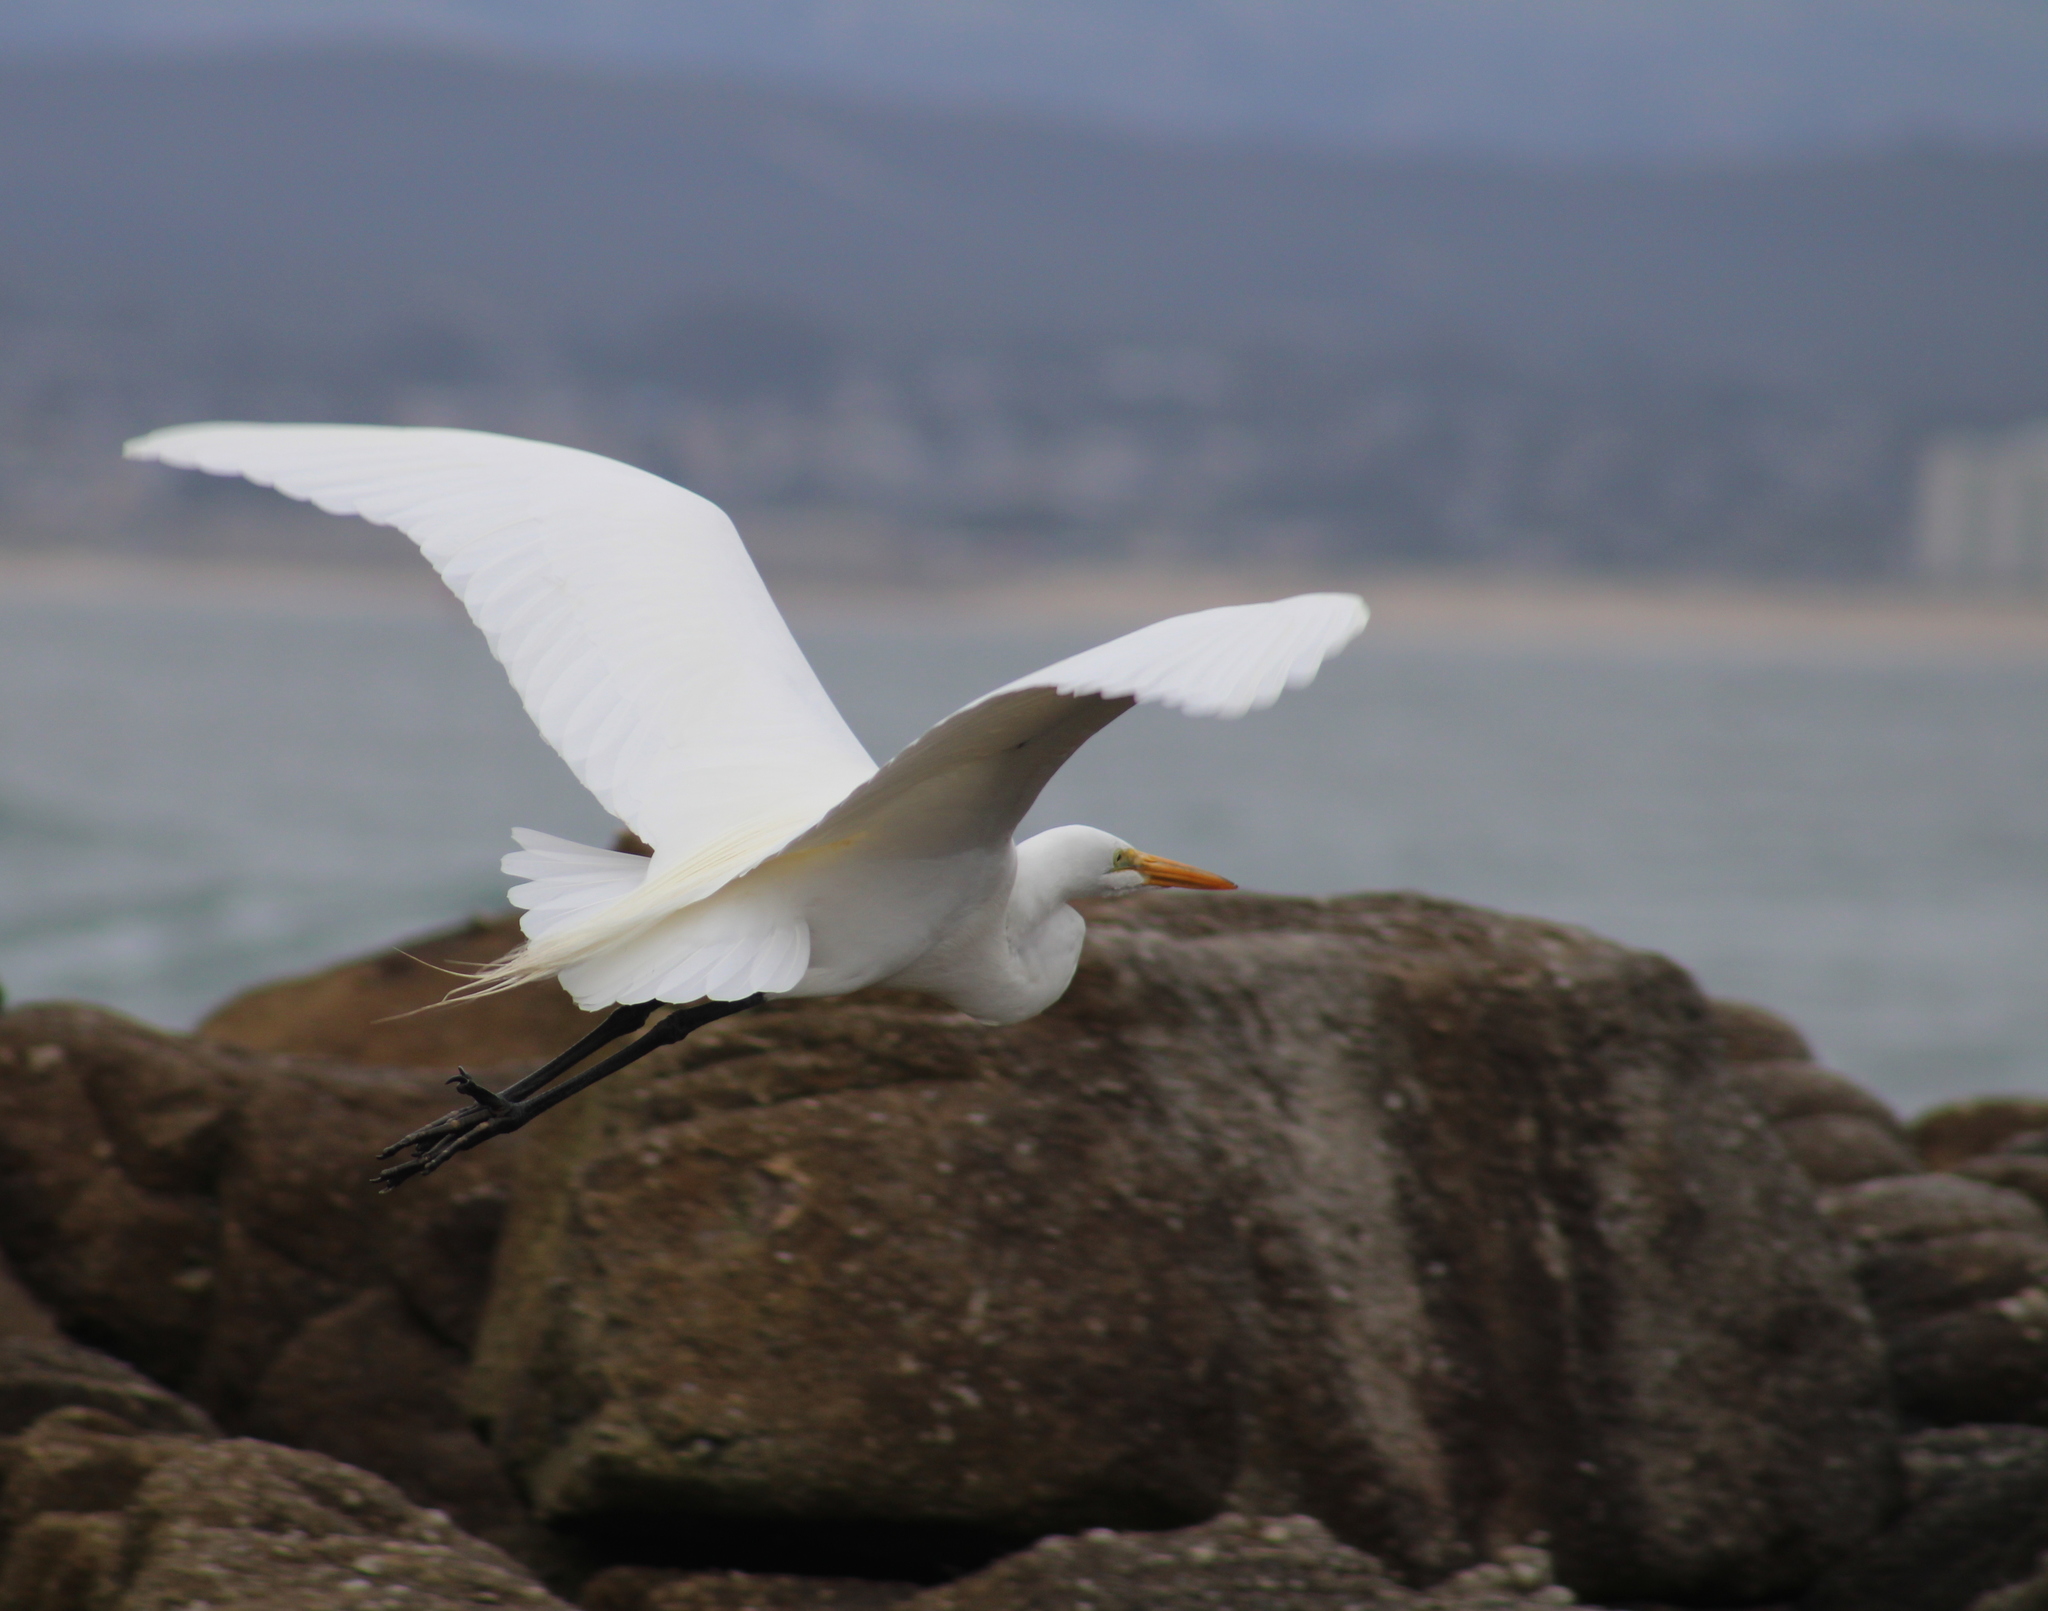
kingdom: Animalia
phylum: Chordata
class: Aves
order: Pelecaniformes
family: Ardeidae
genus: Ardea
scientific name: Ardea alba
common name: Great egret
